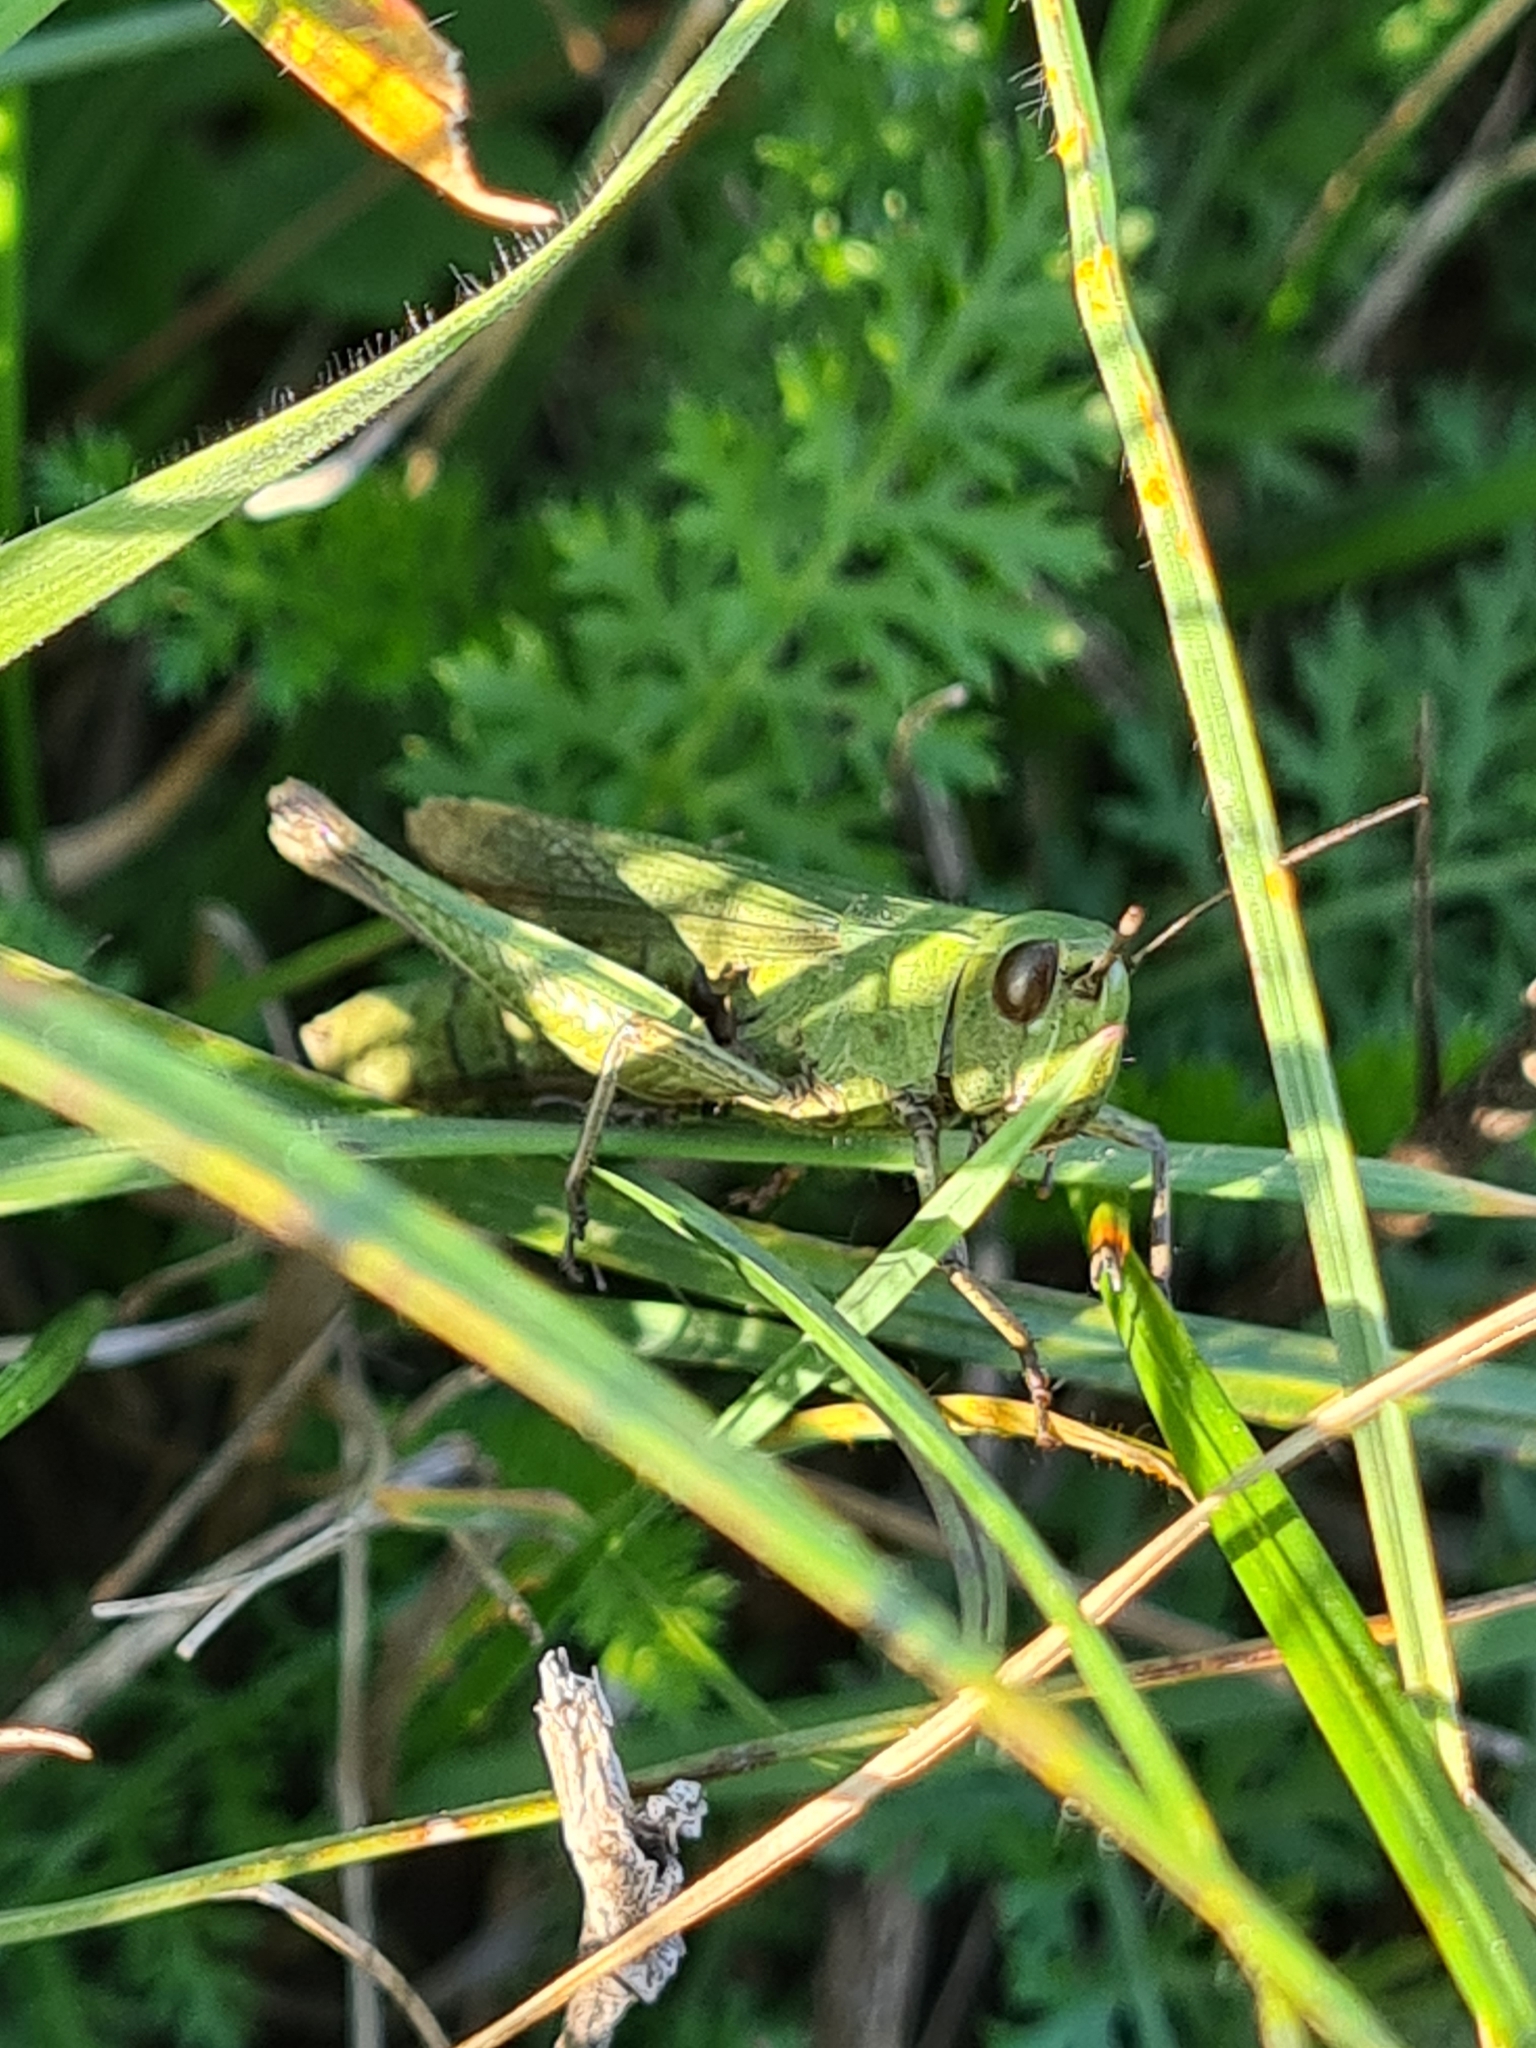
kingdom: Animalia
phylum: Arthropoda
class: Insecta
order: Orthoptera
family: Acrididae
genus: Chorthippus
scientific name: Chorthippus dorsatus
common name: Steppe grasshopper
